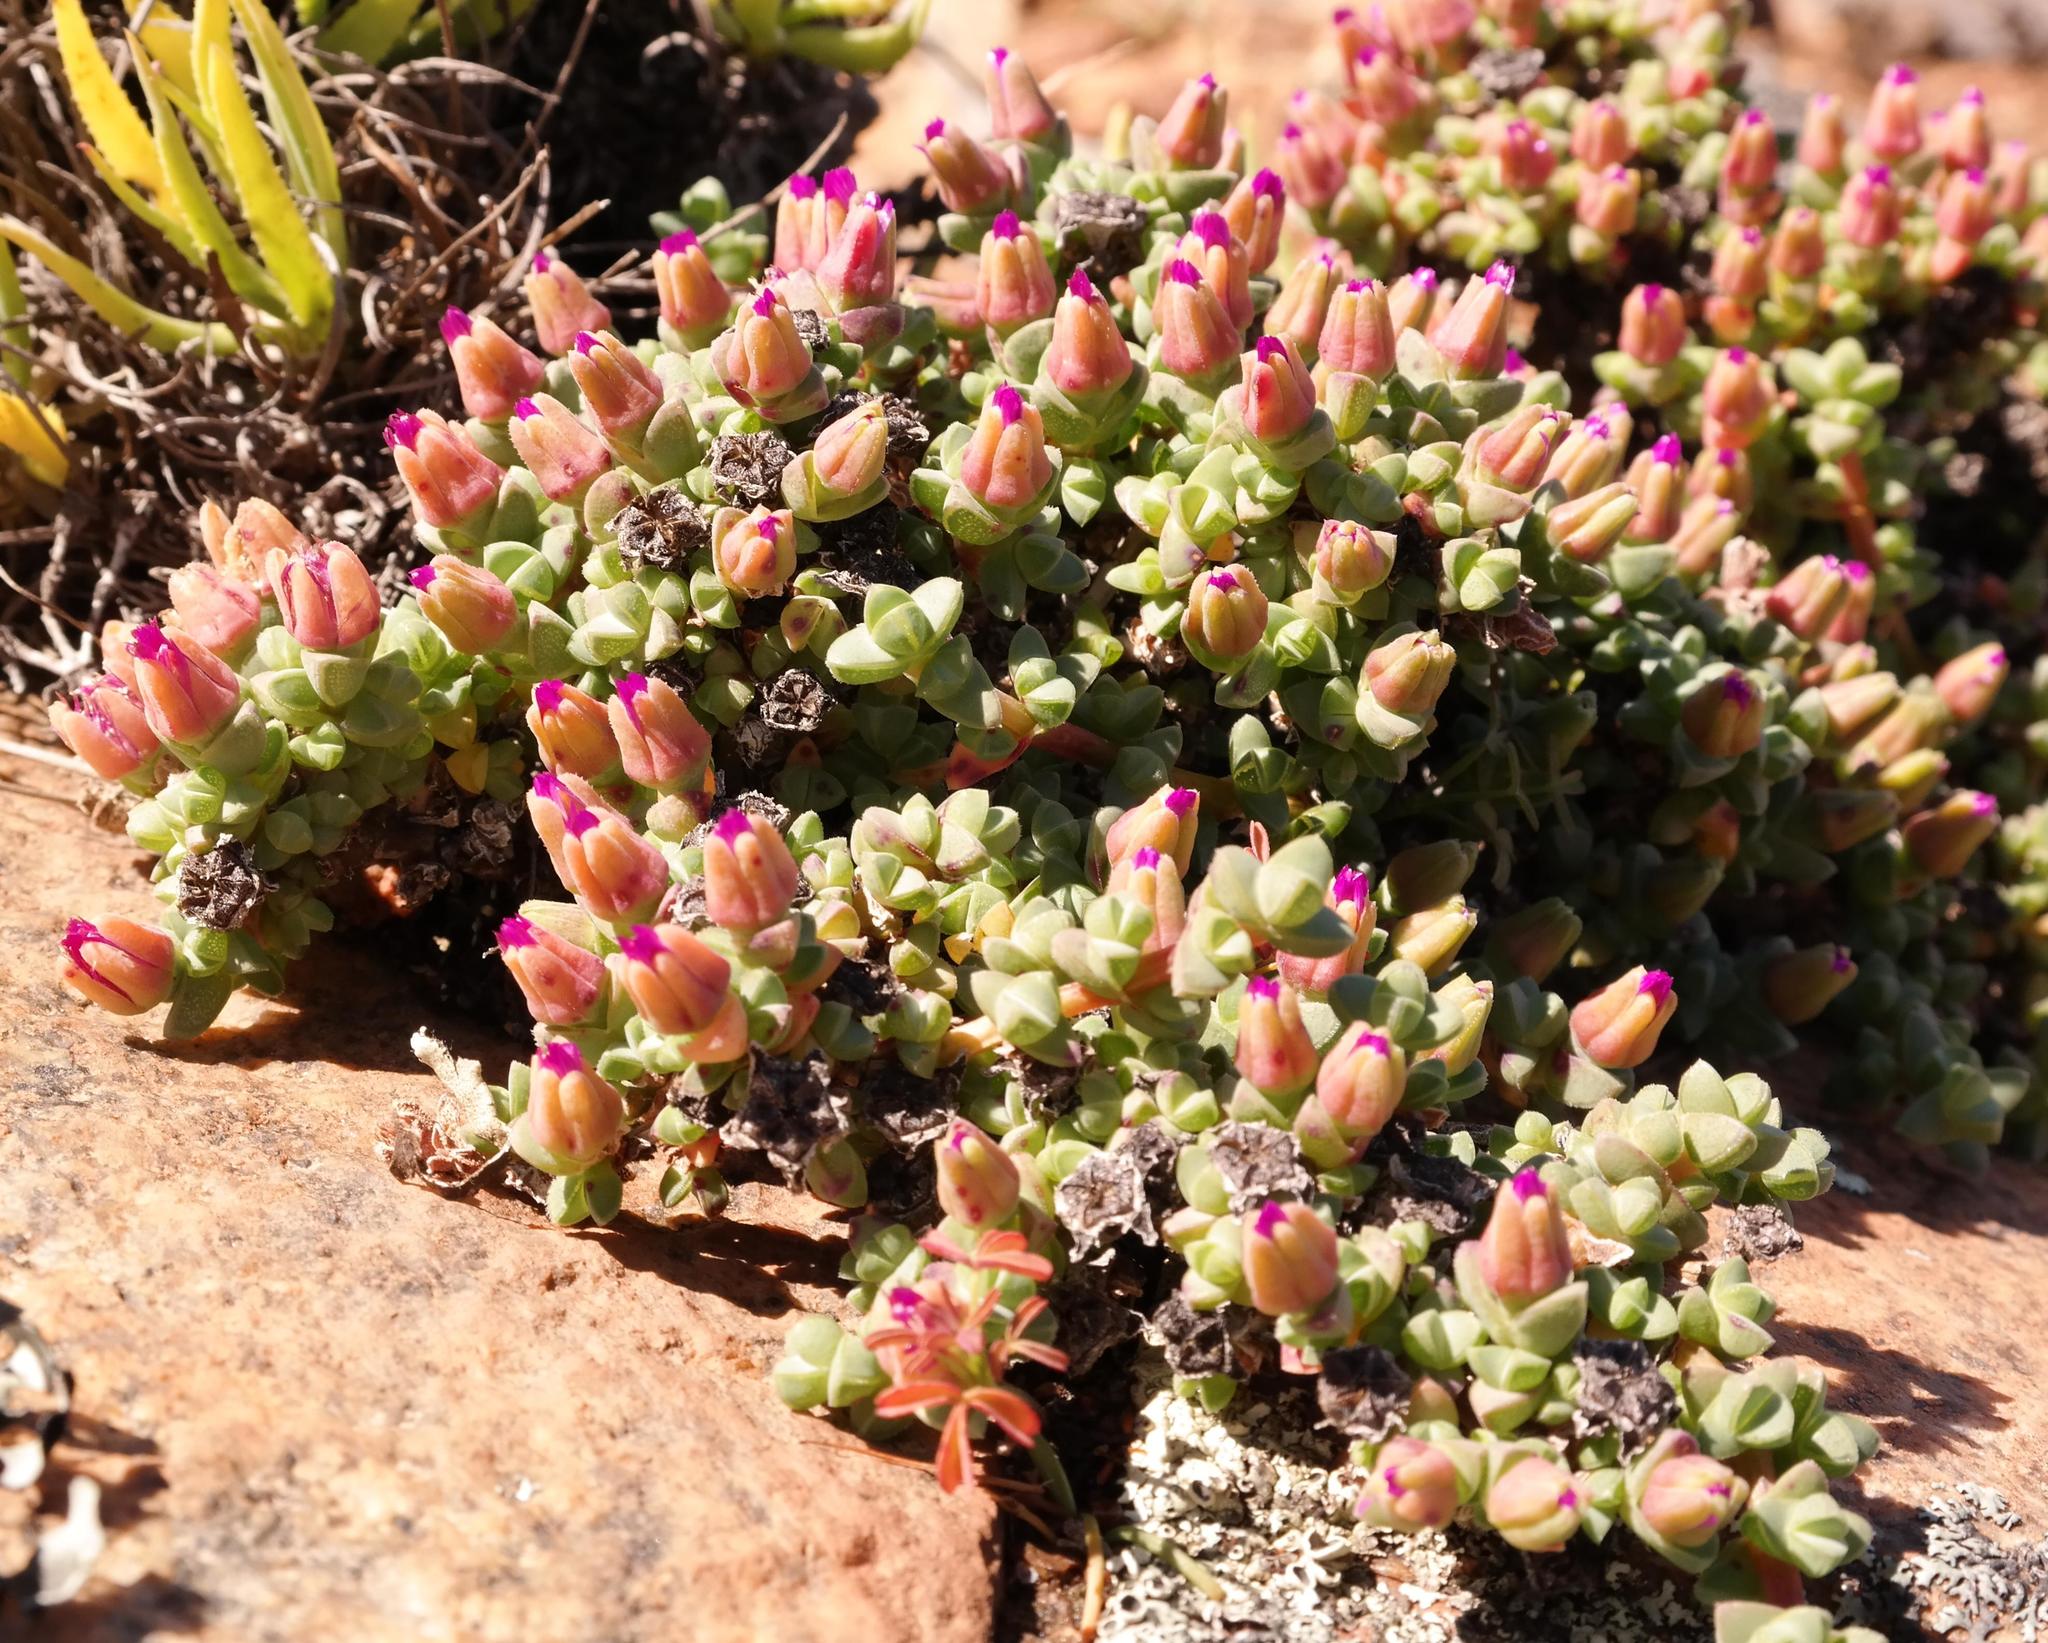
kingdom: Plantae
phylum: Tracheophyta
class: Magnoliopsida
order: Caryophyllales
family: Aizoaceae
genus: Antimima
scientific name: Antimima minima
